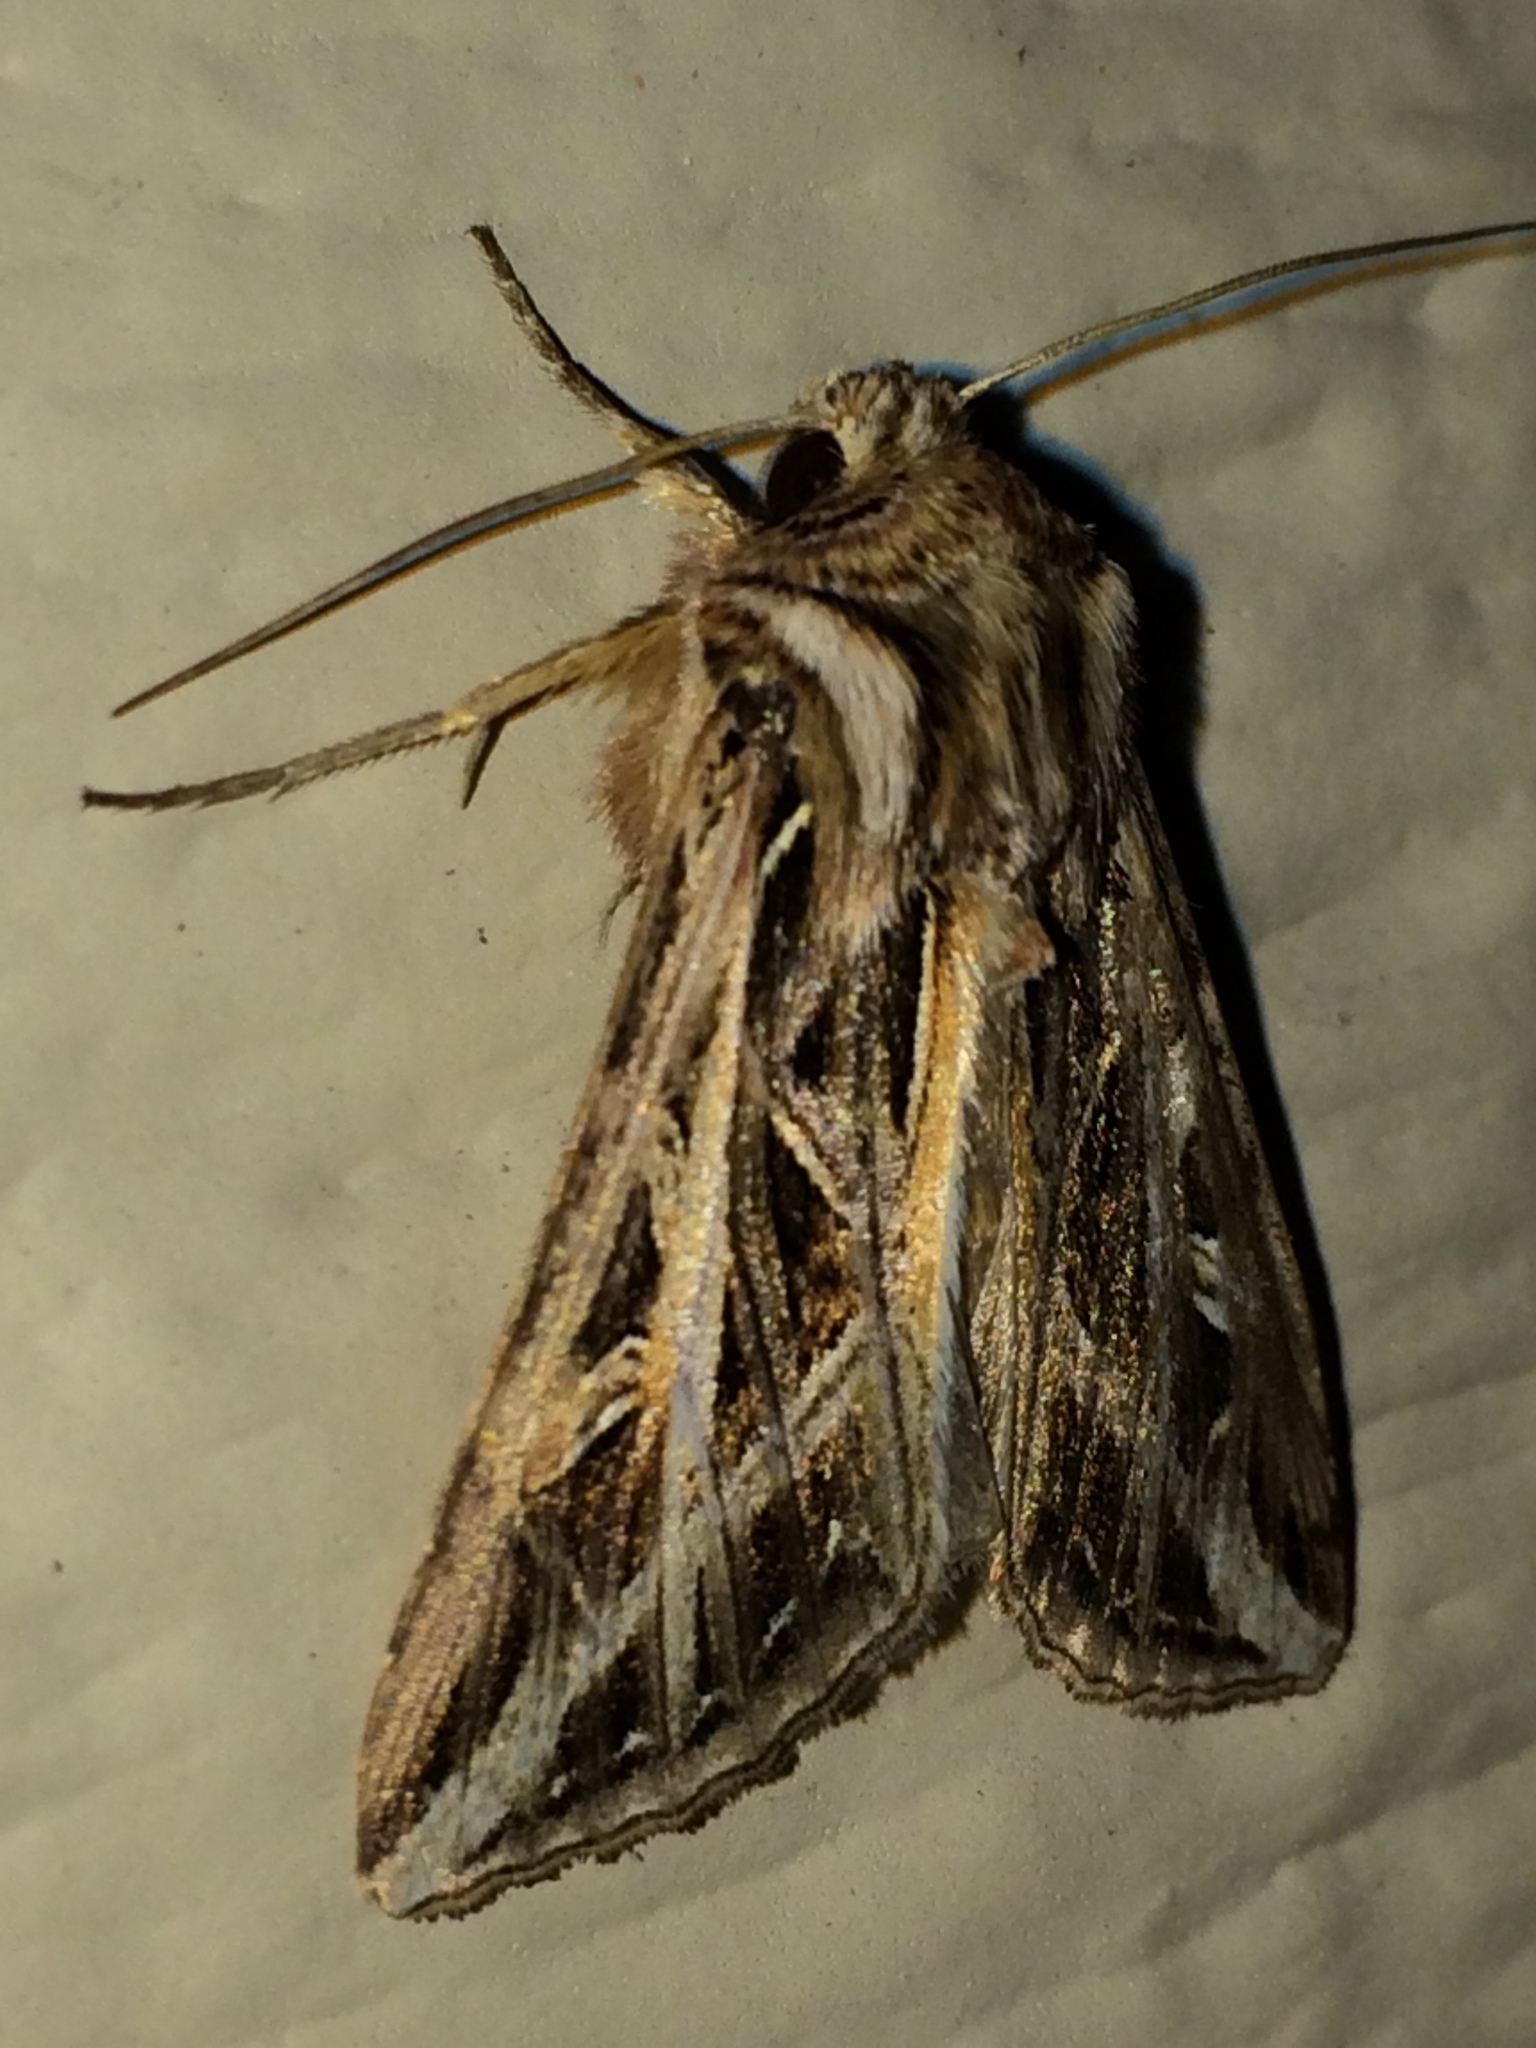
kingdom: Animalia
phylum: Arthropoda
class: Insecta
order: Lepidoptera
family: Noctuidae
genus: Dargida
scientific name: Dargida procinctus
